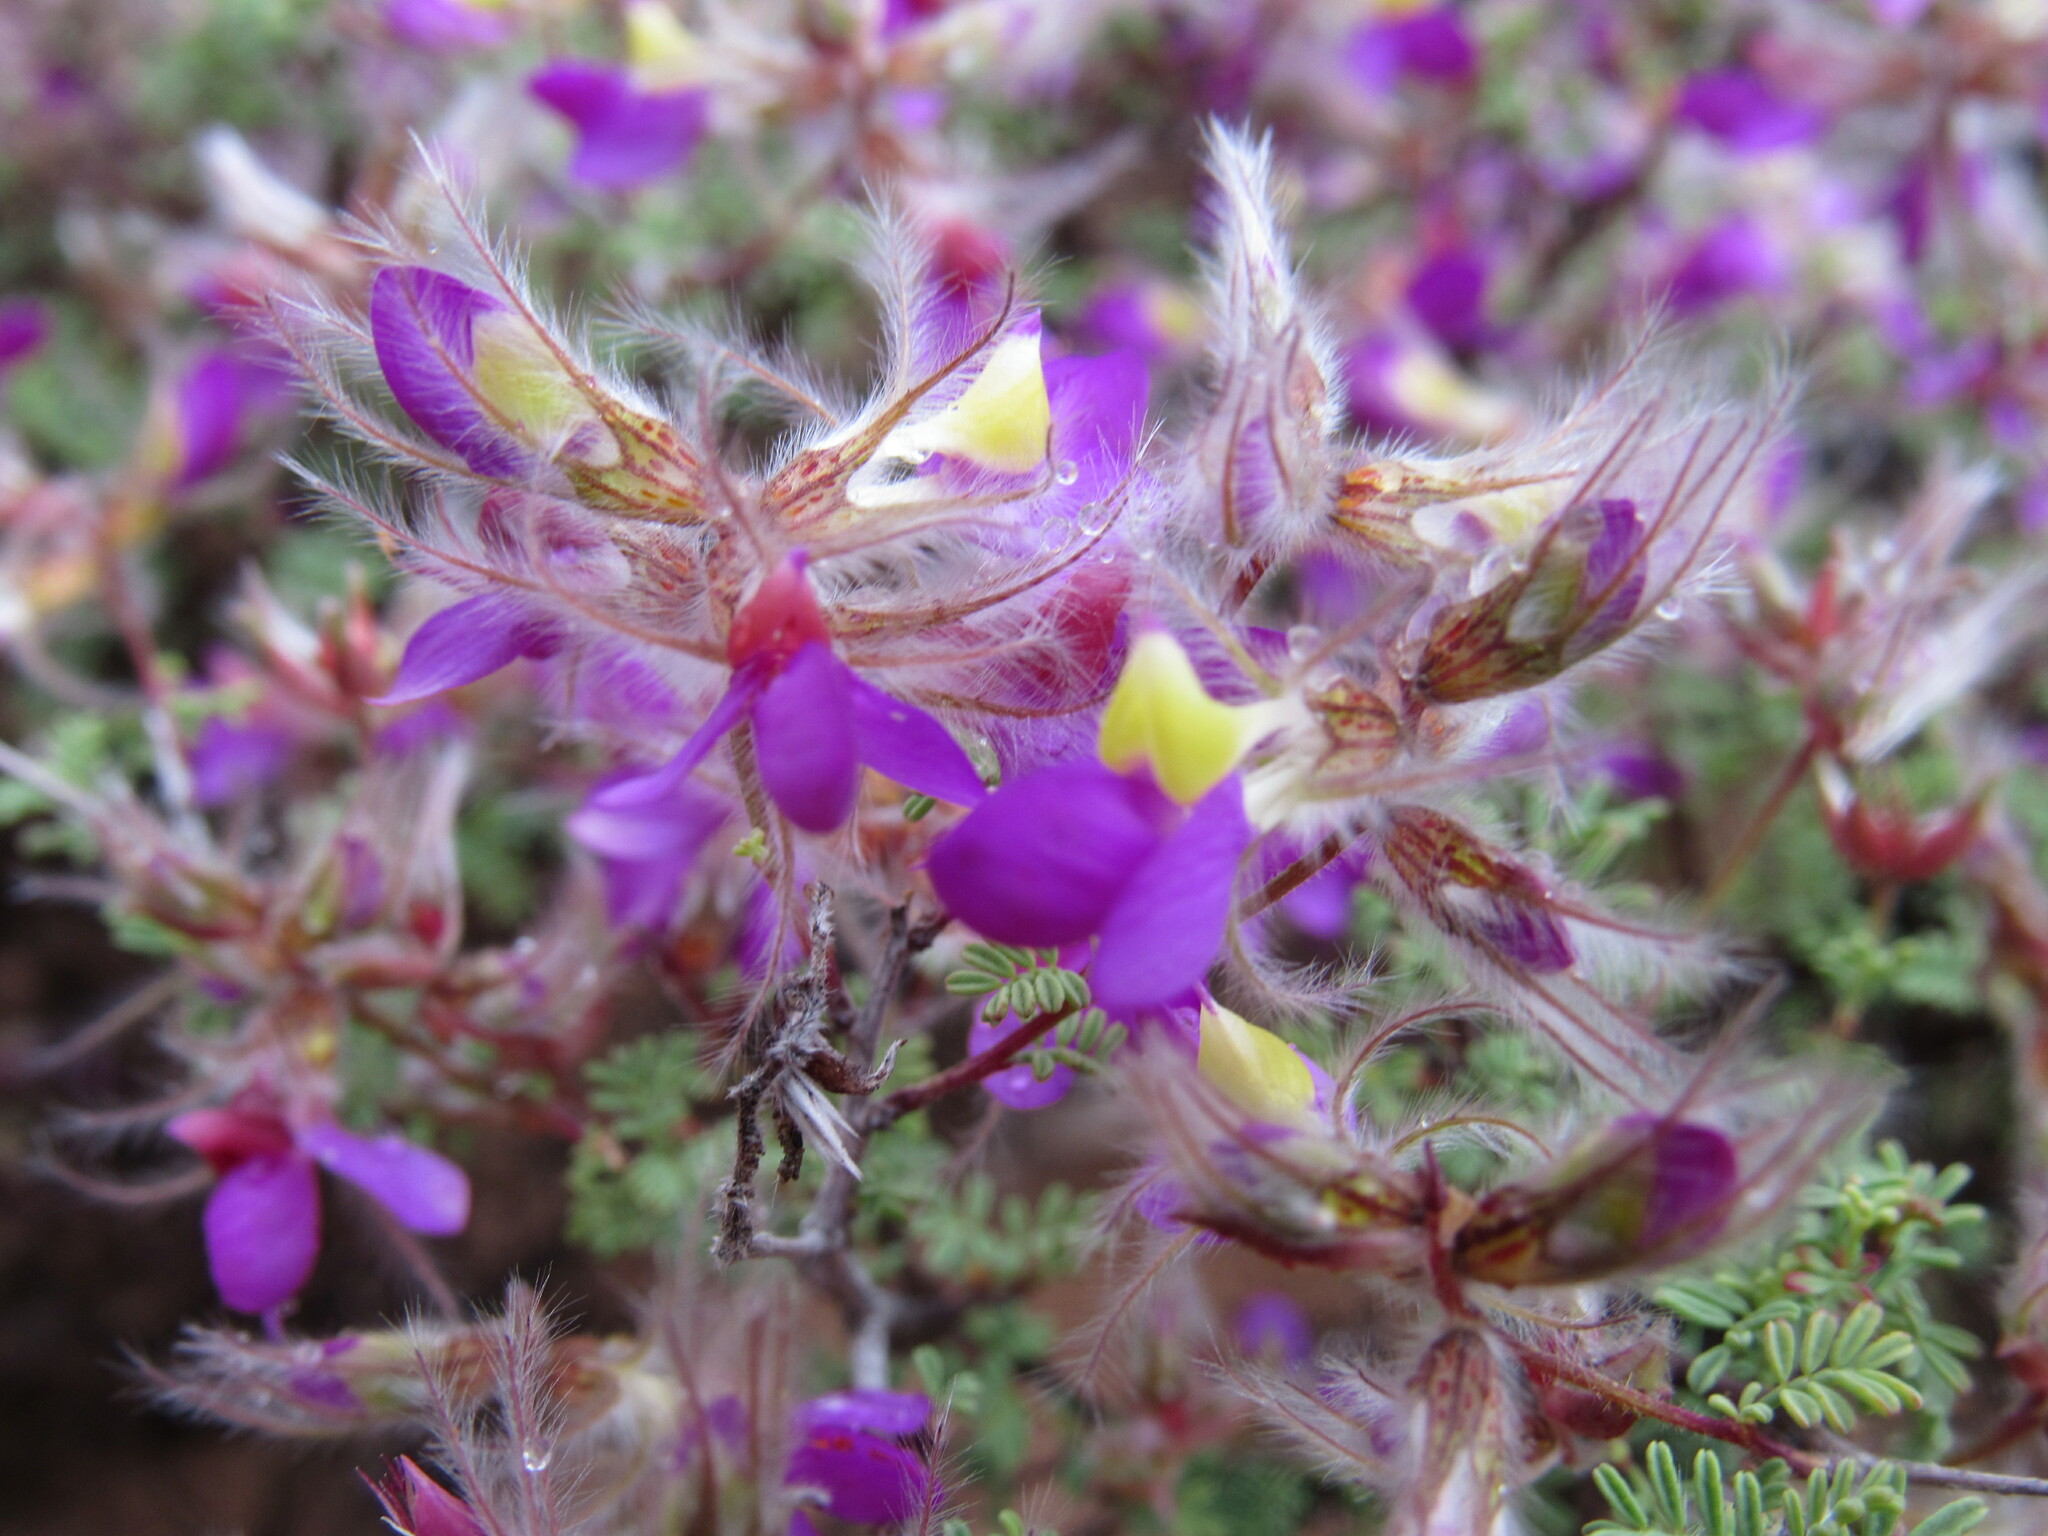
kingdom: Plantae
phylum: Tracheophyta
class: Magnoliopsida
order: Fabales
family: Fabaceae
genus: Dalea
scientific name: Dalea formosa
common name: Feather-plume dalea
